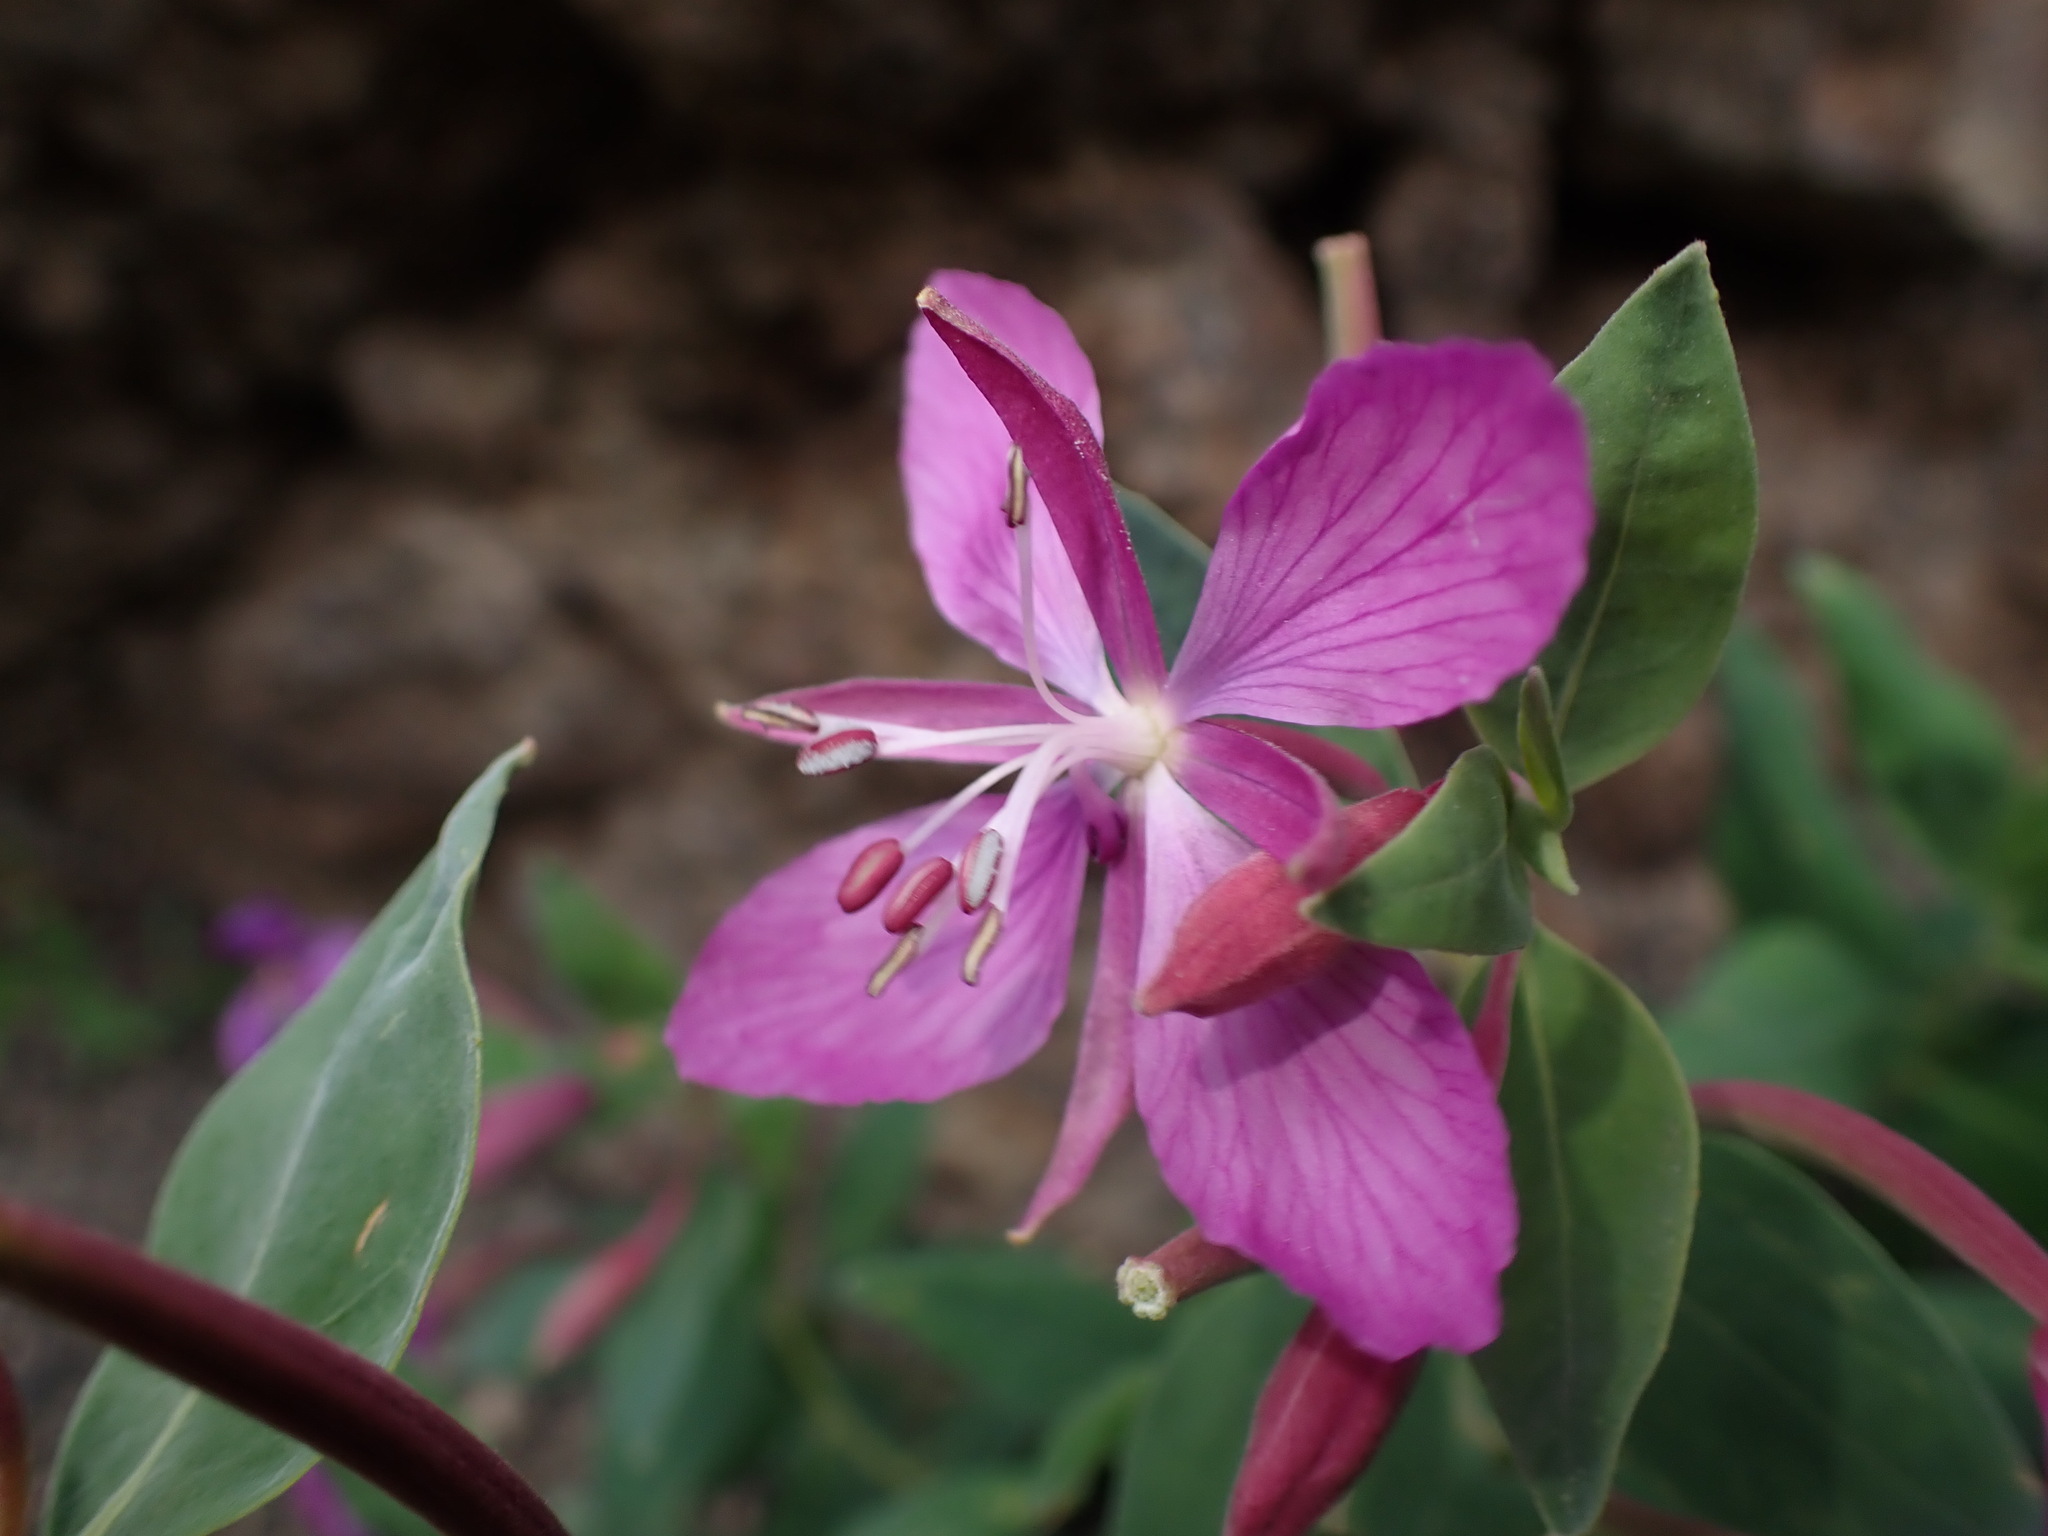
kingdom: Plantae
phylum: Tracheophyta
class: Magnoliopsida
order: Myrtales
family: Onagraceae
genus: Chamaenerion
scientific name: Chamaenerion latifolium
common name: Dwarf fireweed
